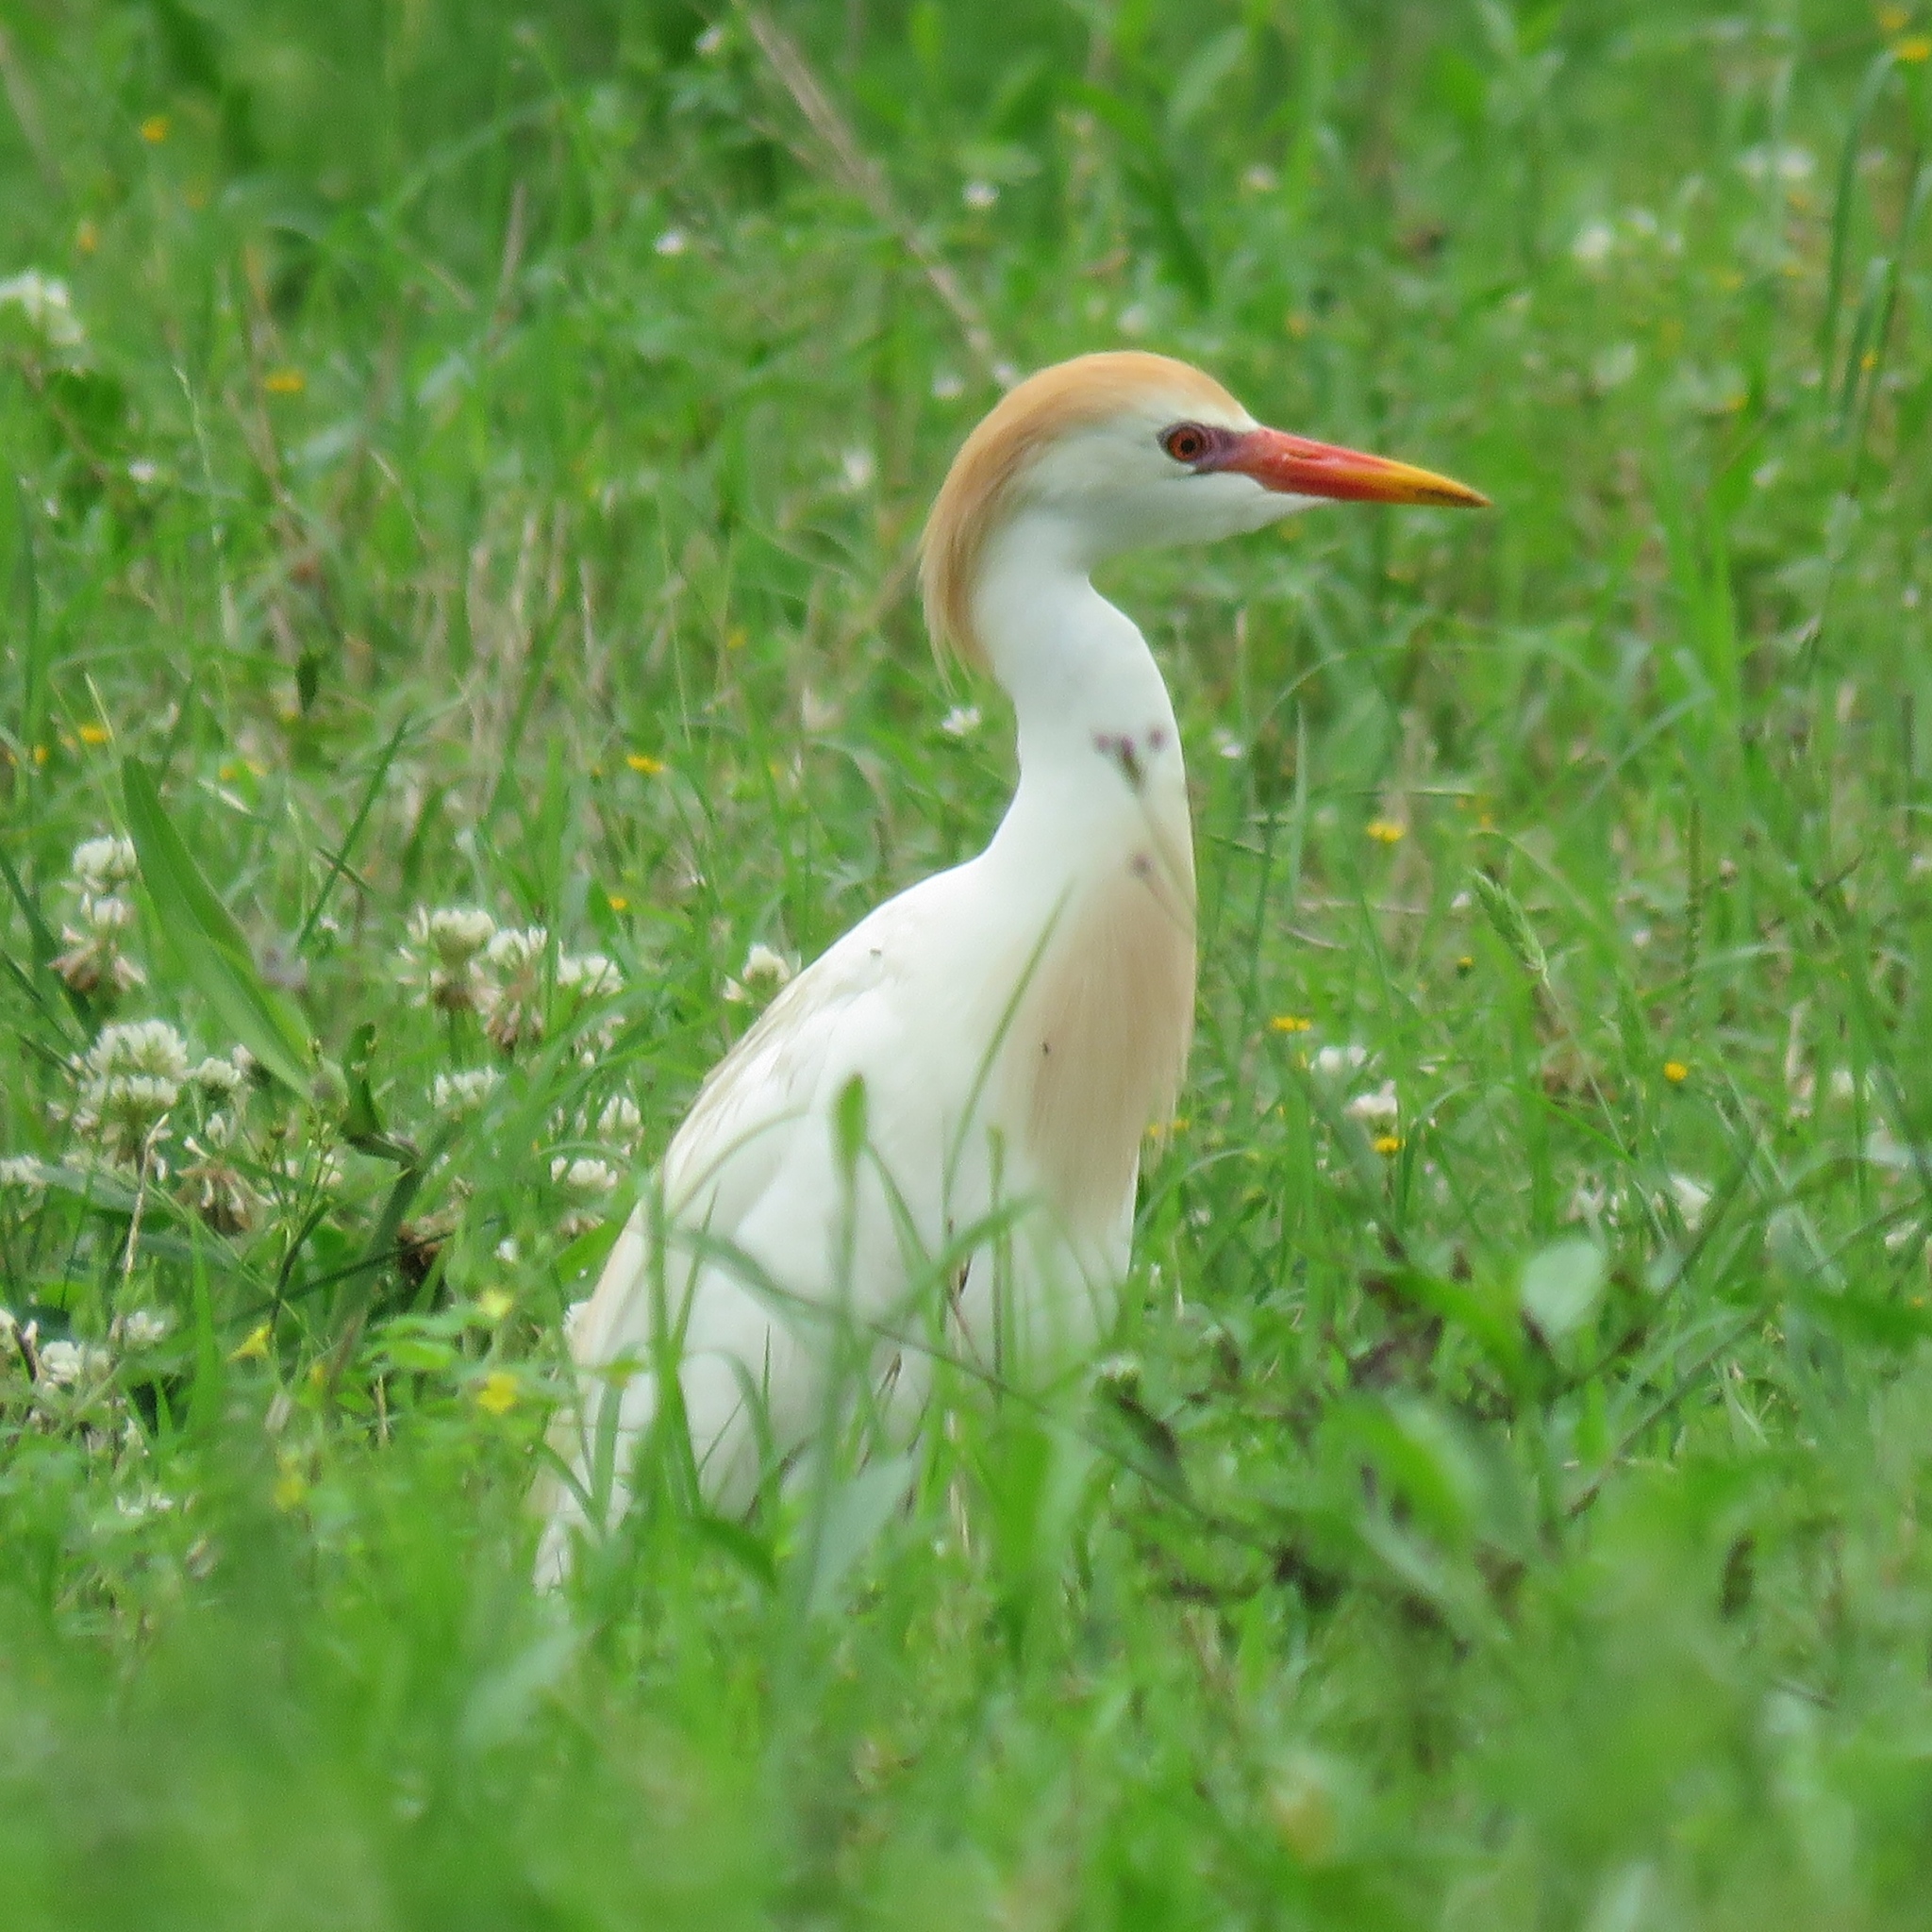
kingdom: Animalia
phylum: Chordata
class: Aves
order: Pelecaniformes
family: Ardeidae
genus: Bubulcus
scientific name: Bubulcus ibis
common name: Cattle egret
